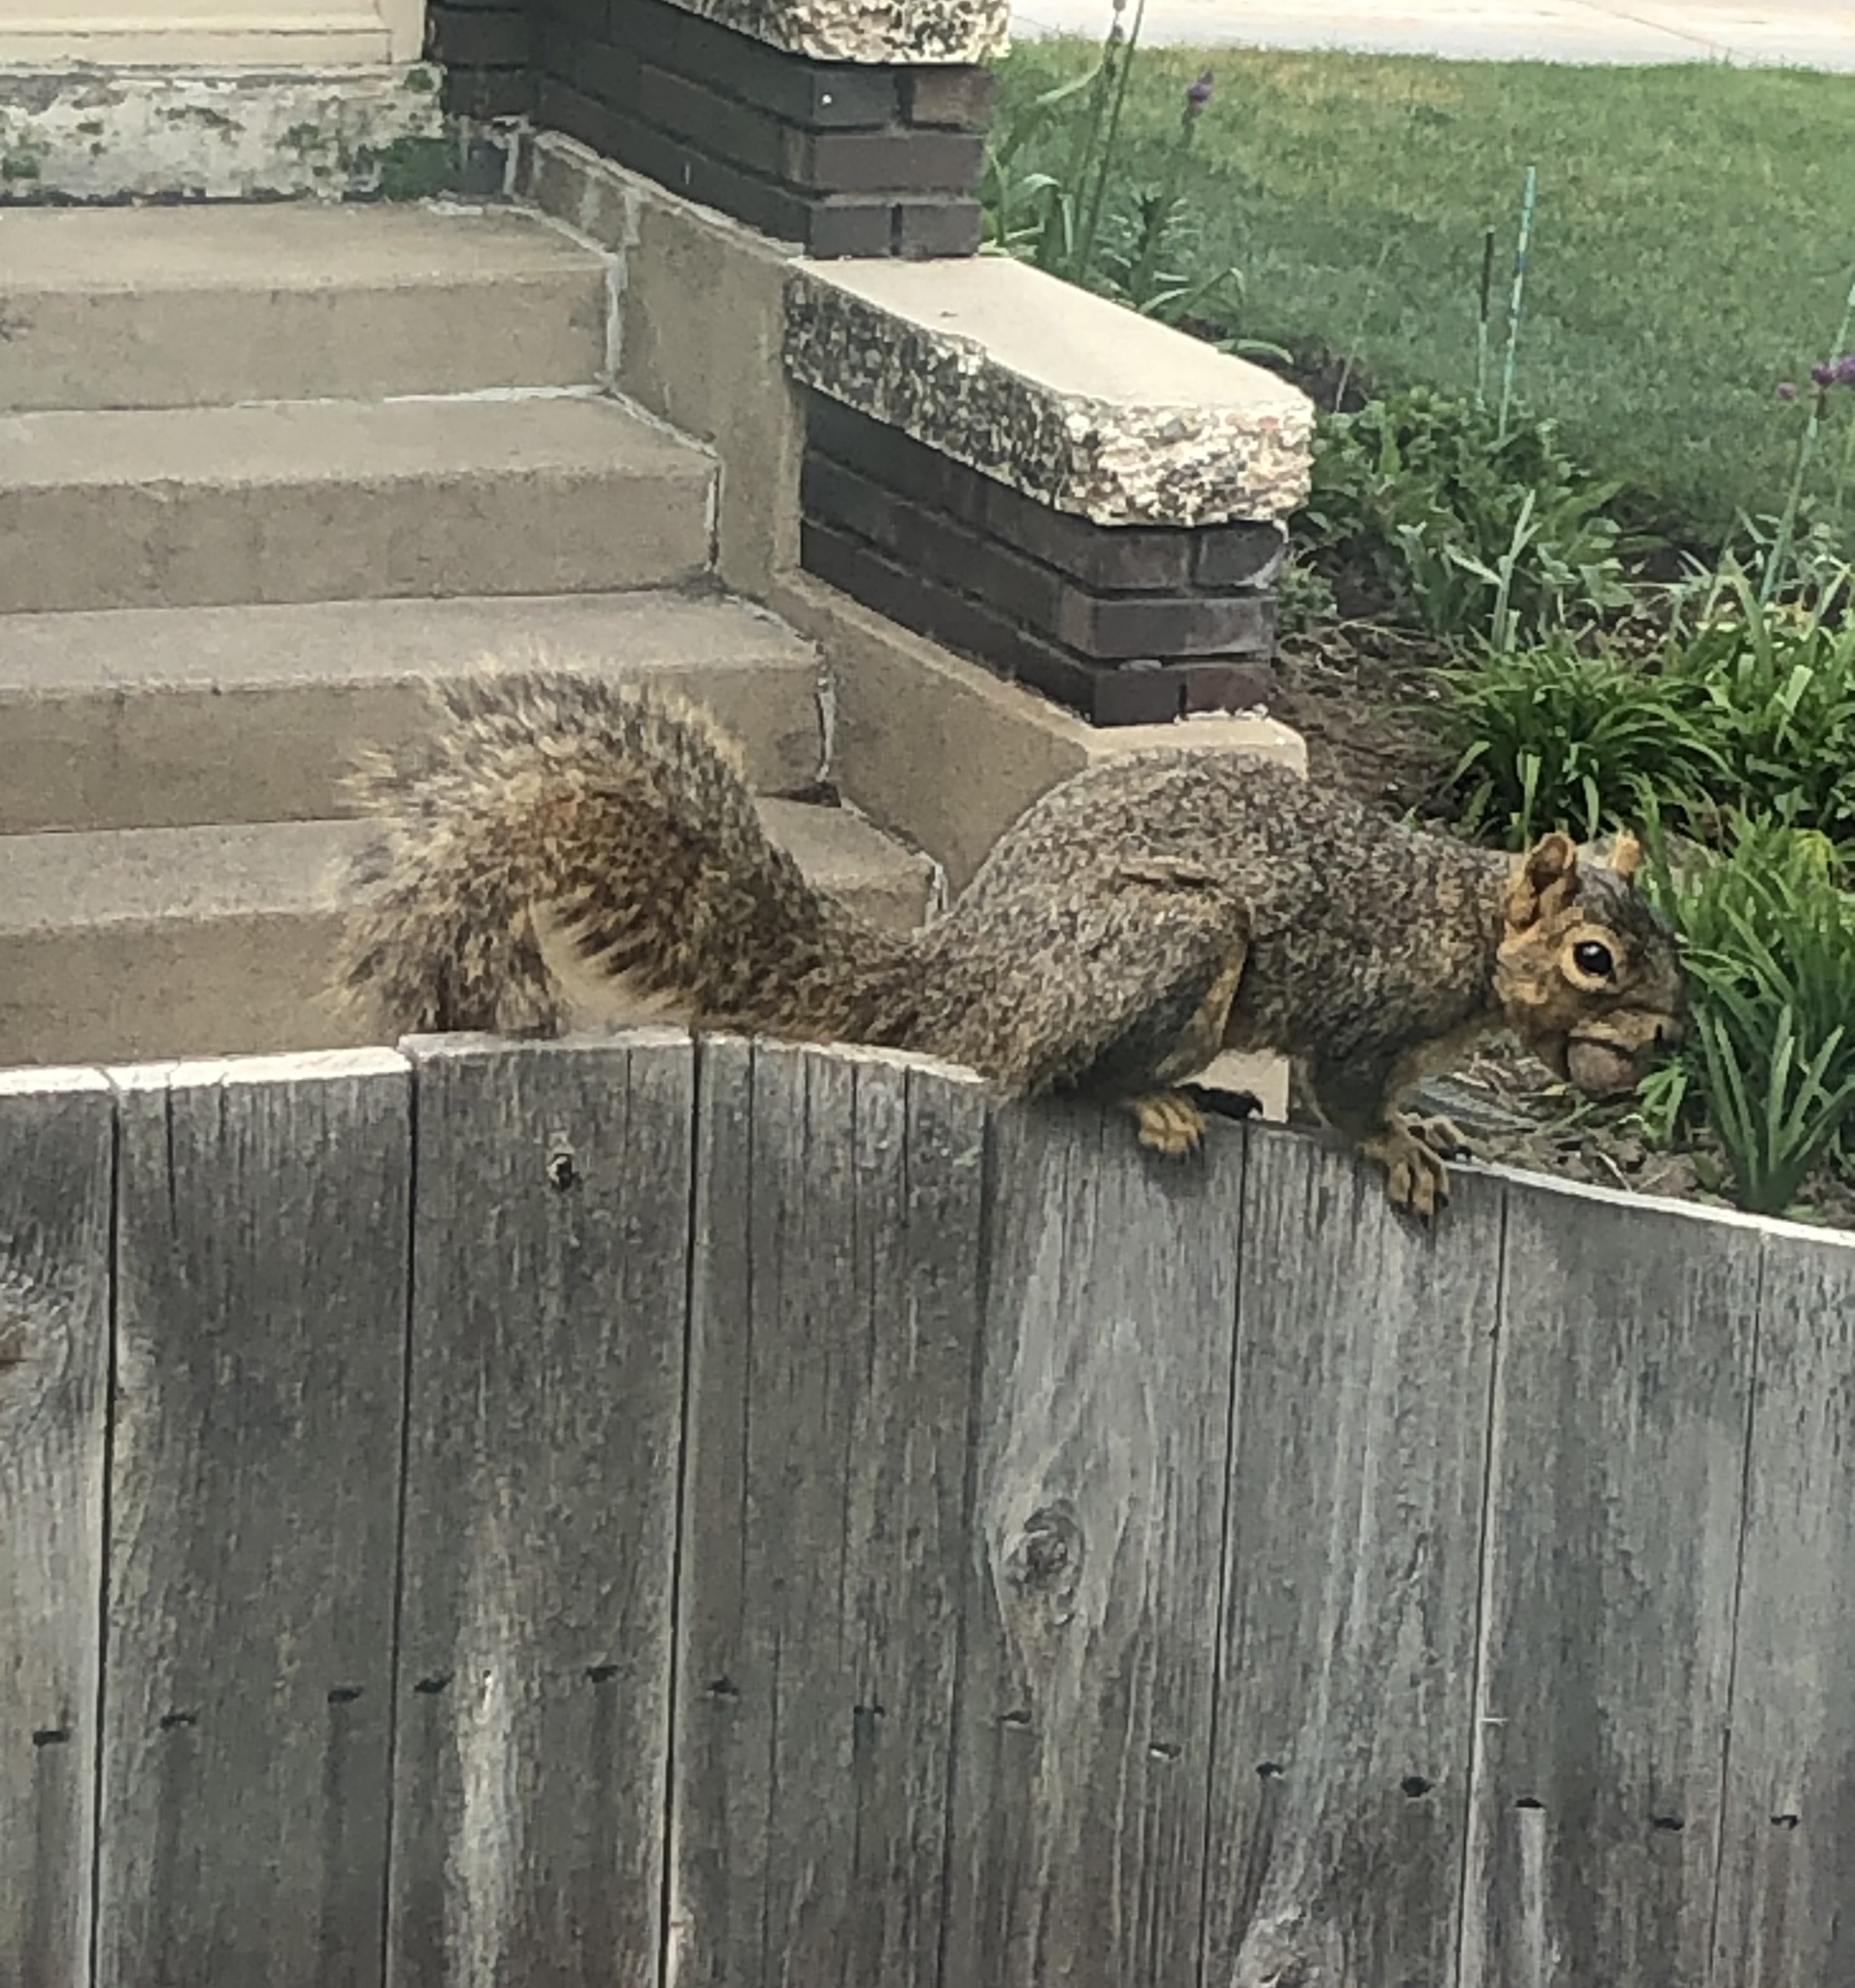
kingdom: Animalia
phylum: Chordata
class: Mammalia
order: Rodentia
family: Sciuridae
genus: Sciurus
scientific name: Sciurus niger
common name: Fox squirrel
